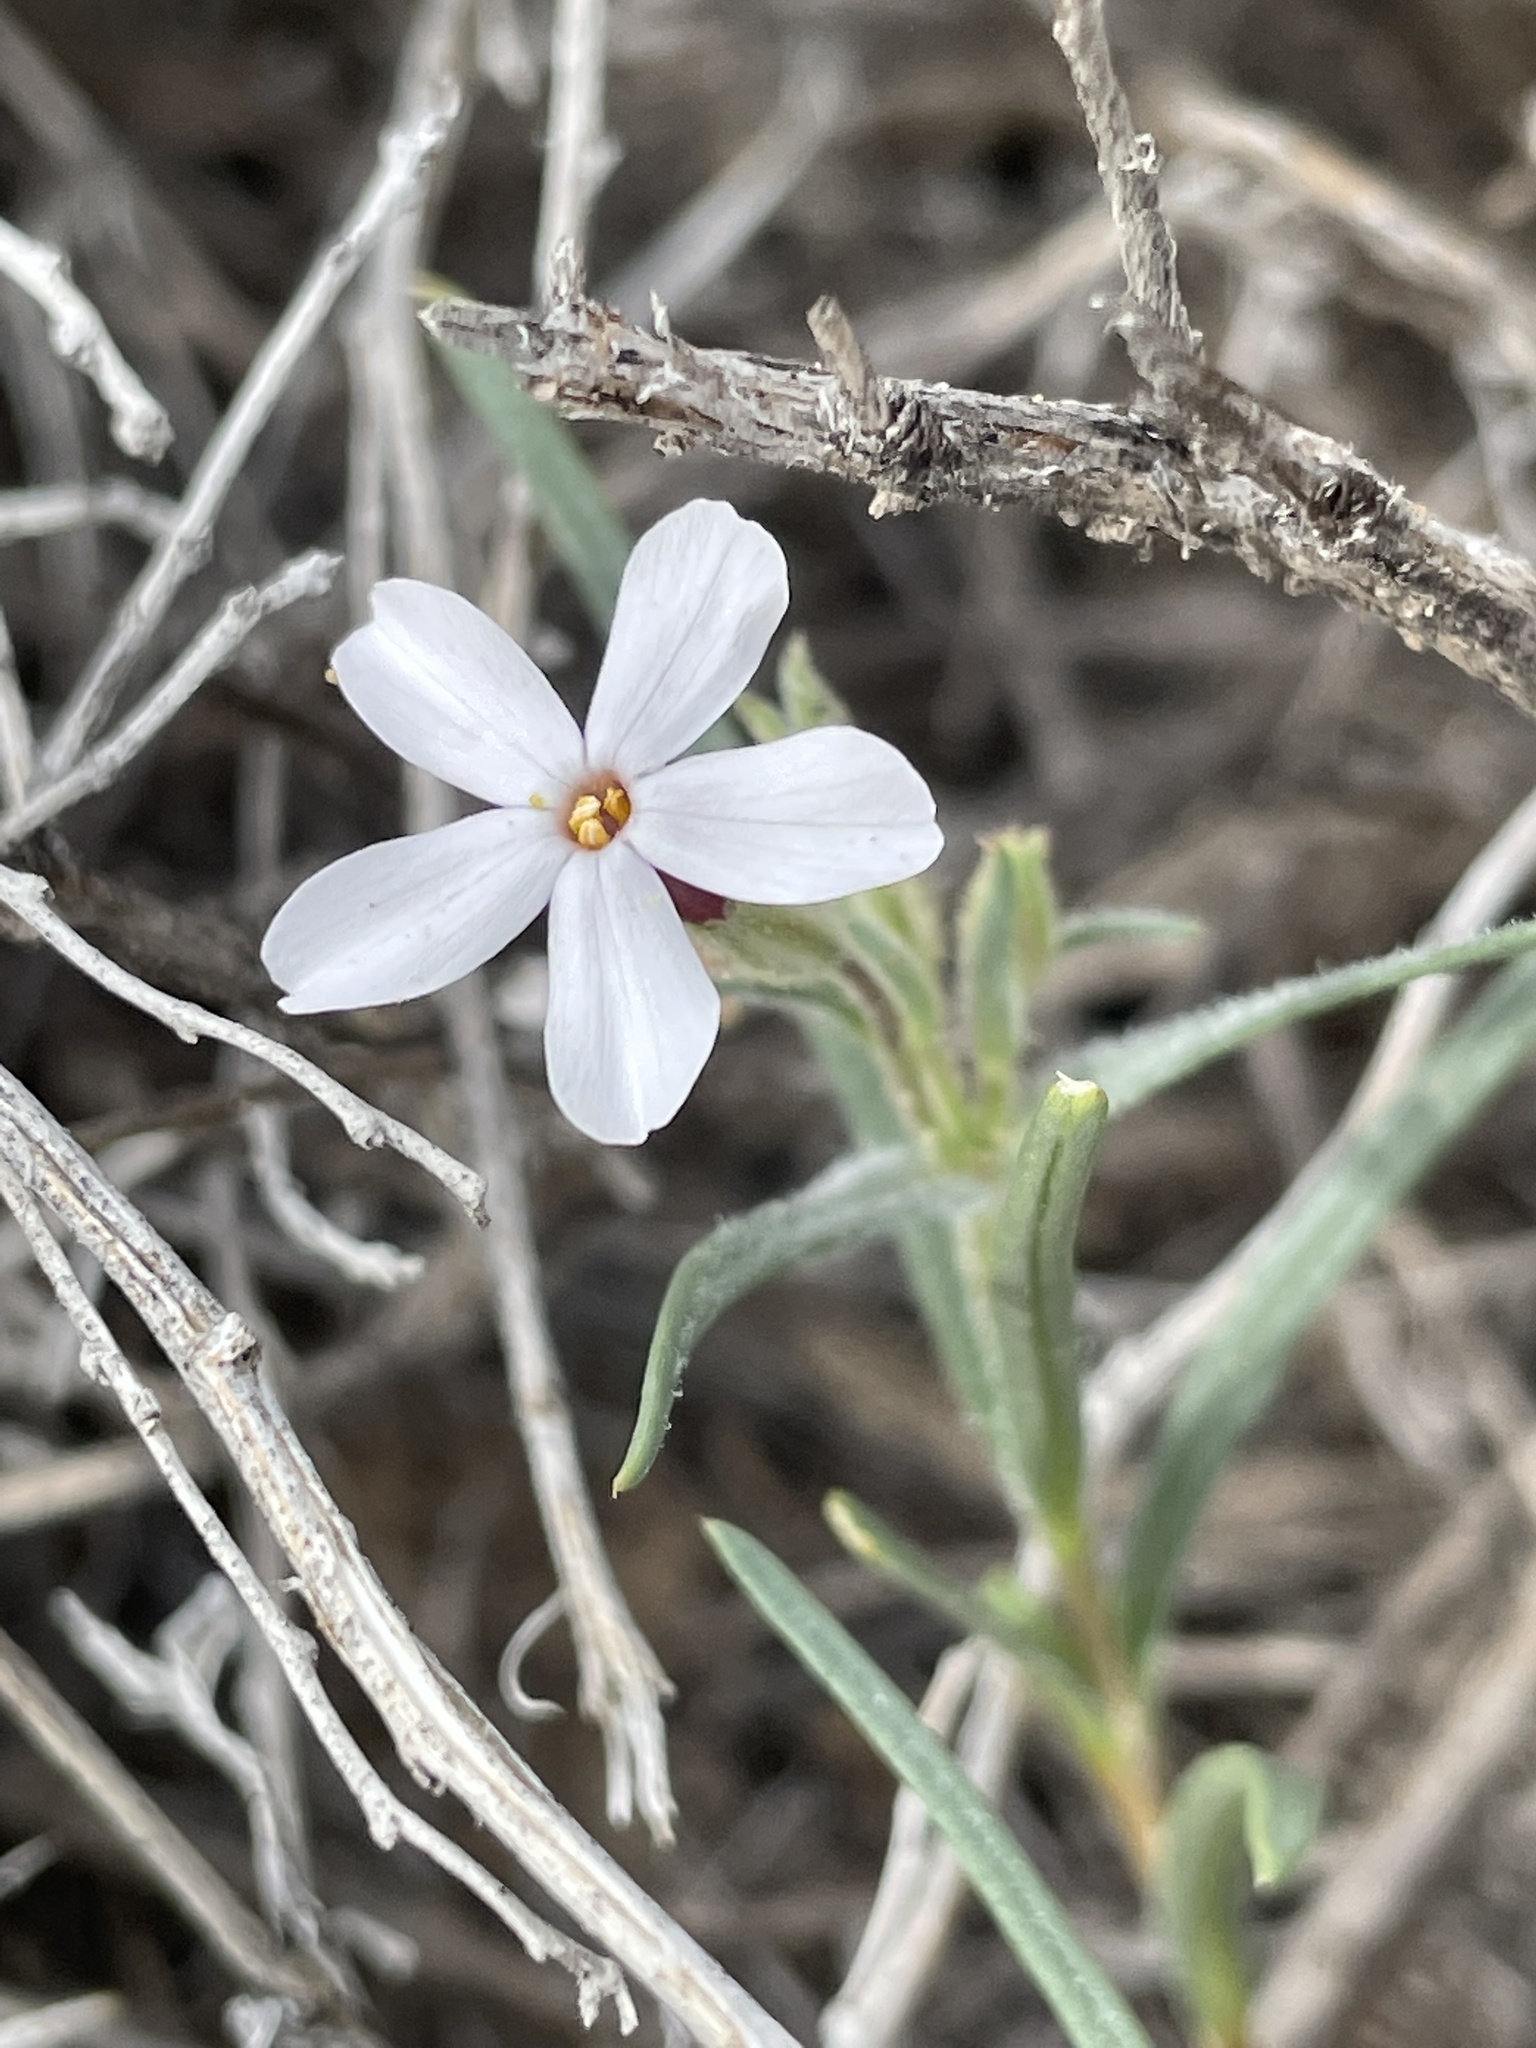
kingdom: Plantae
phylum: Tracheophyta
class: Magnoliopsida
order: Ericales
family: Polemoniaceae
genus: Phlox
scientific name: Phlox longifolia
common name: Longleaf phlox
